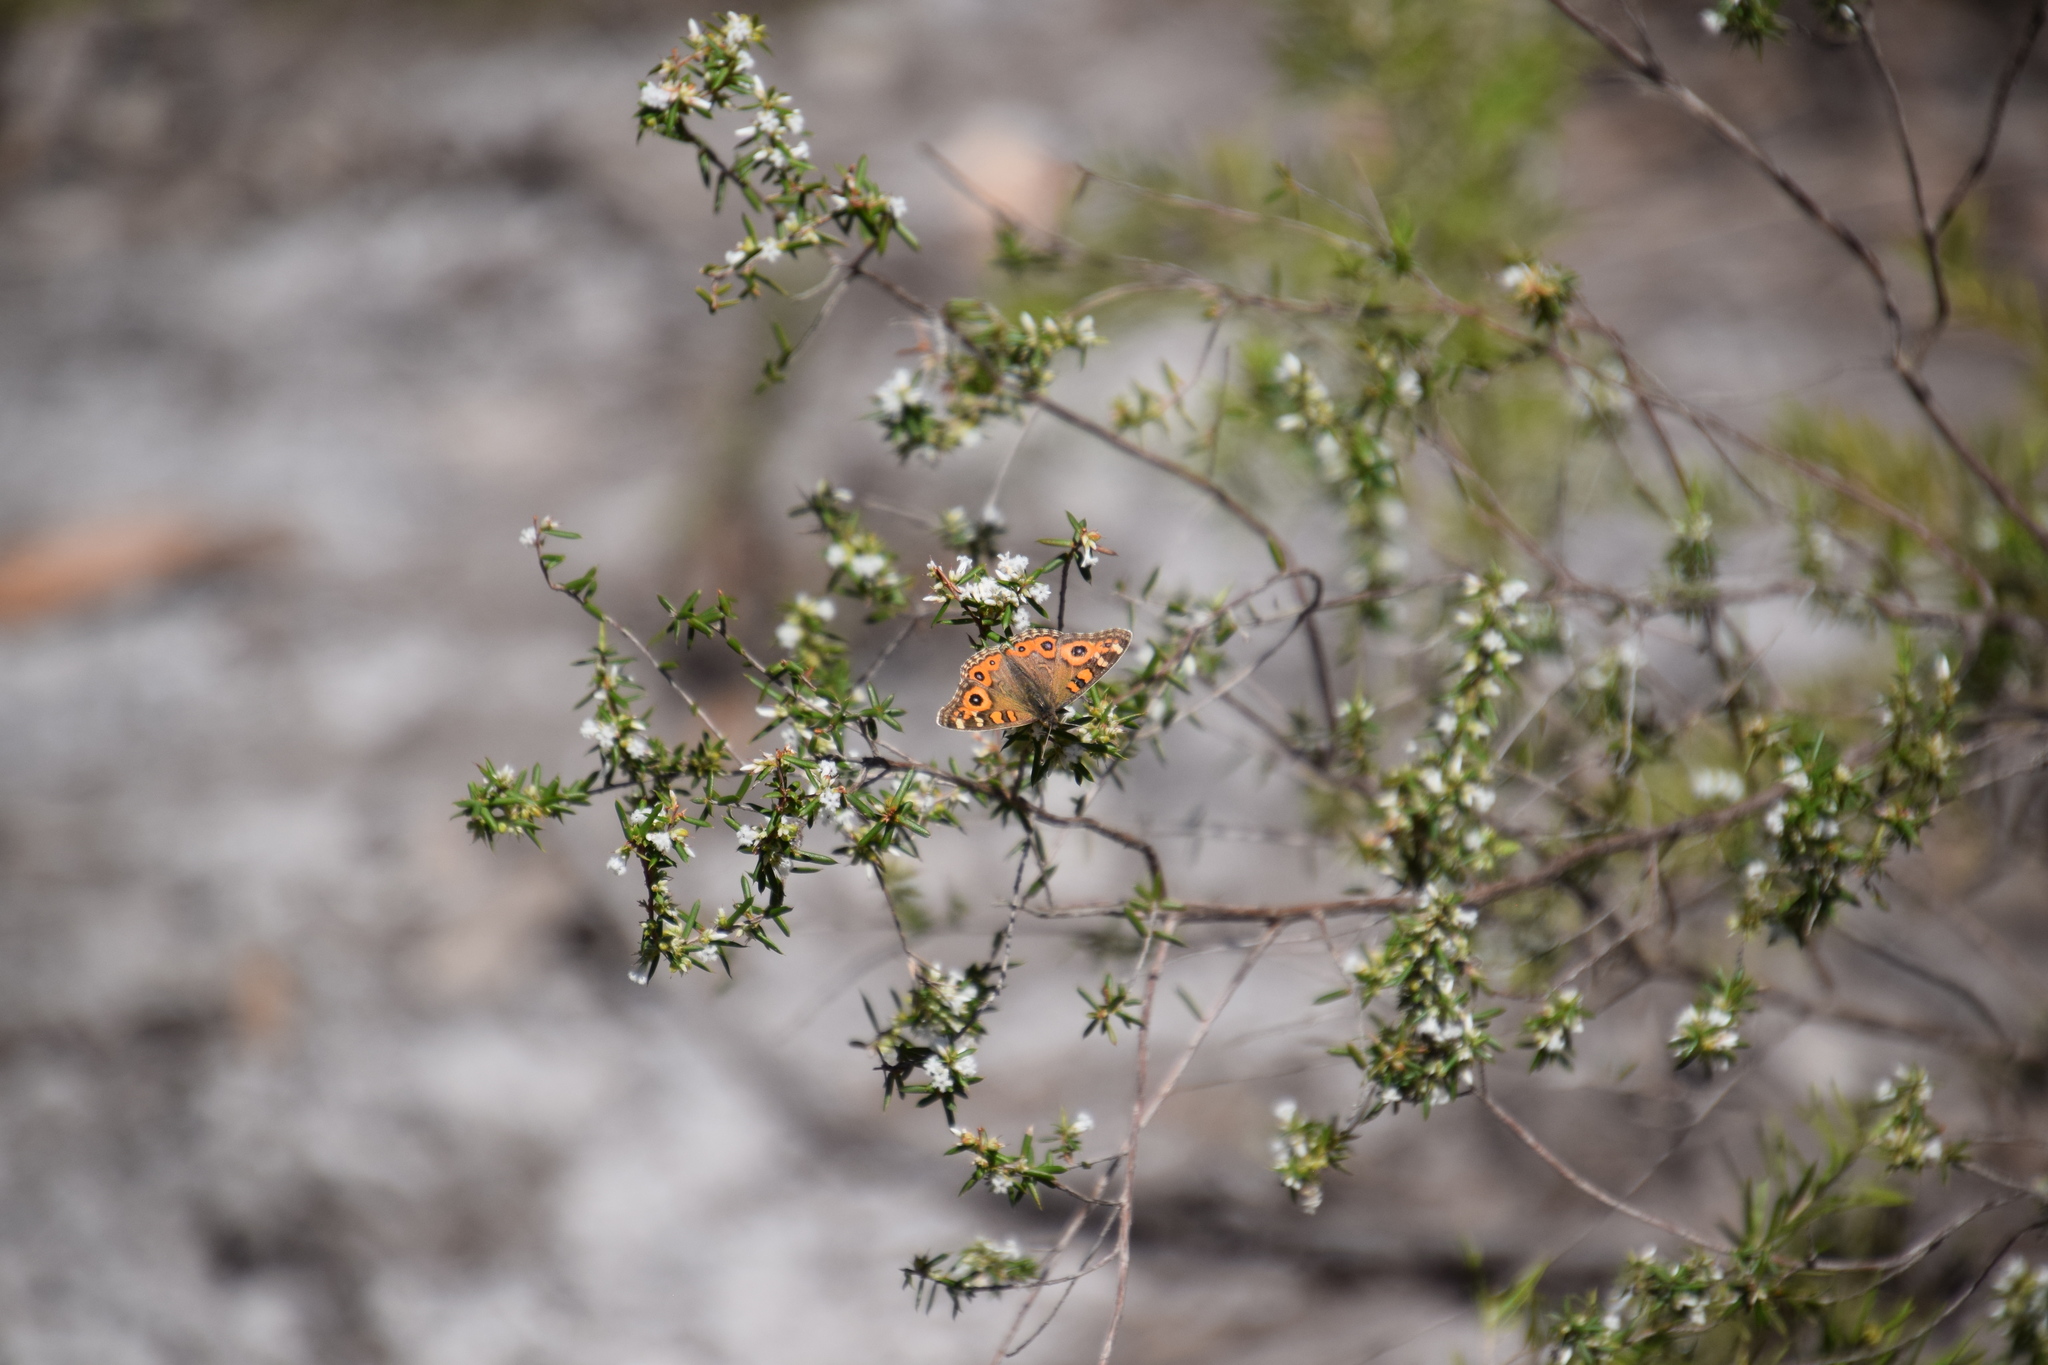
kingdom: Animalia
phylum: Arthropoda
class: Insecta
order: Lepidoptera
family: Nymphalidae
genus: Junonia
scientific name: Junonia villida
